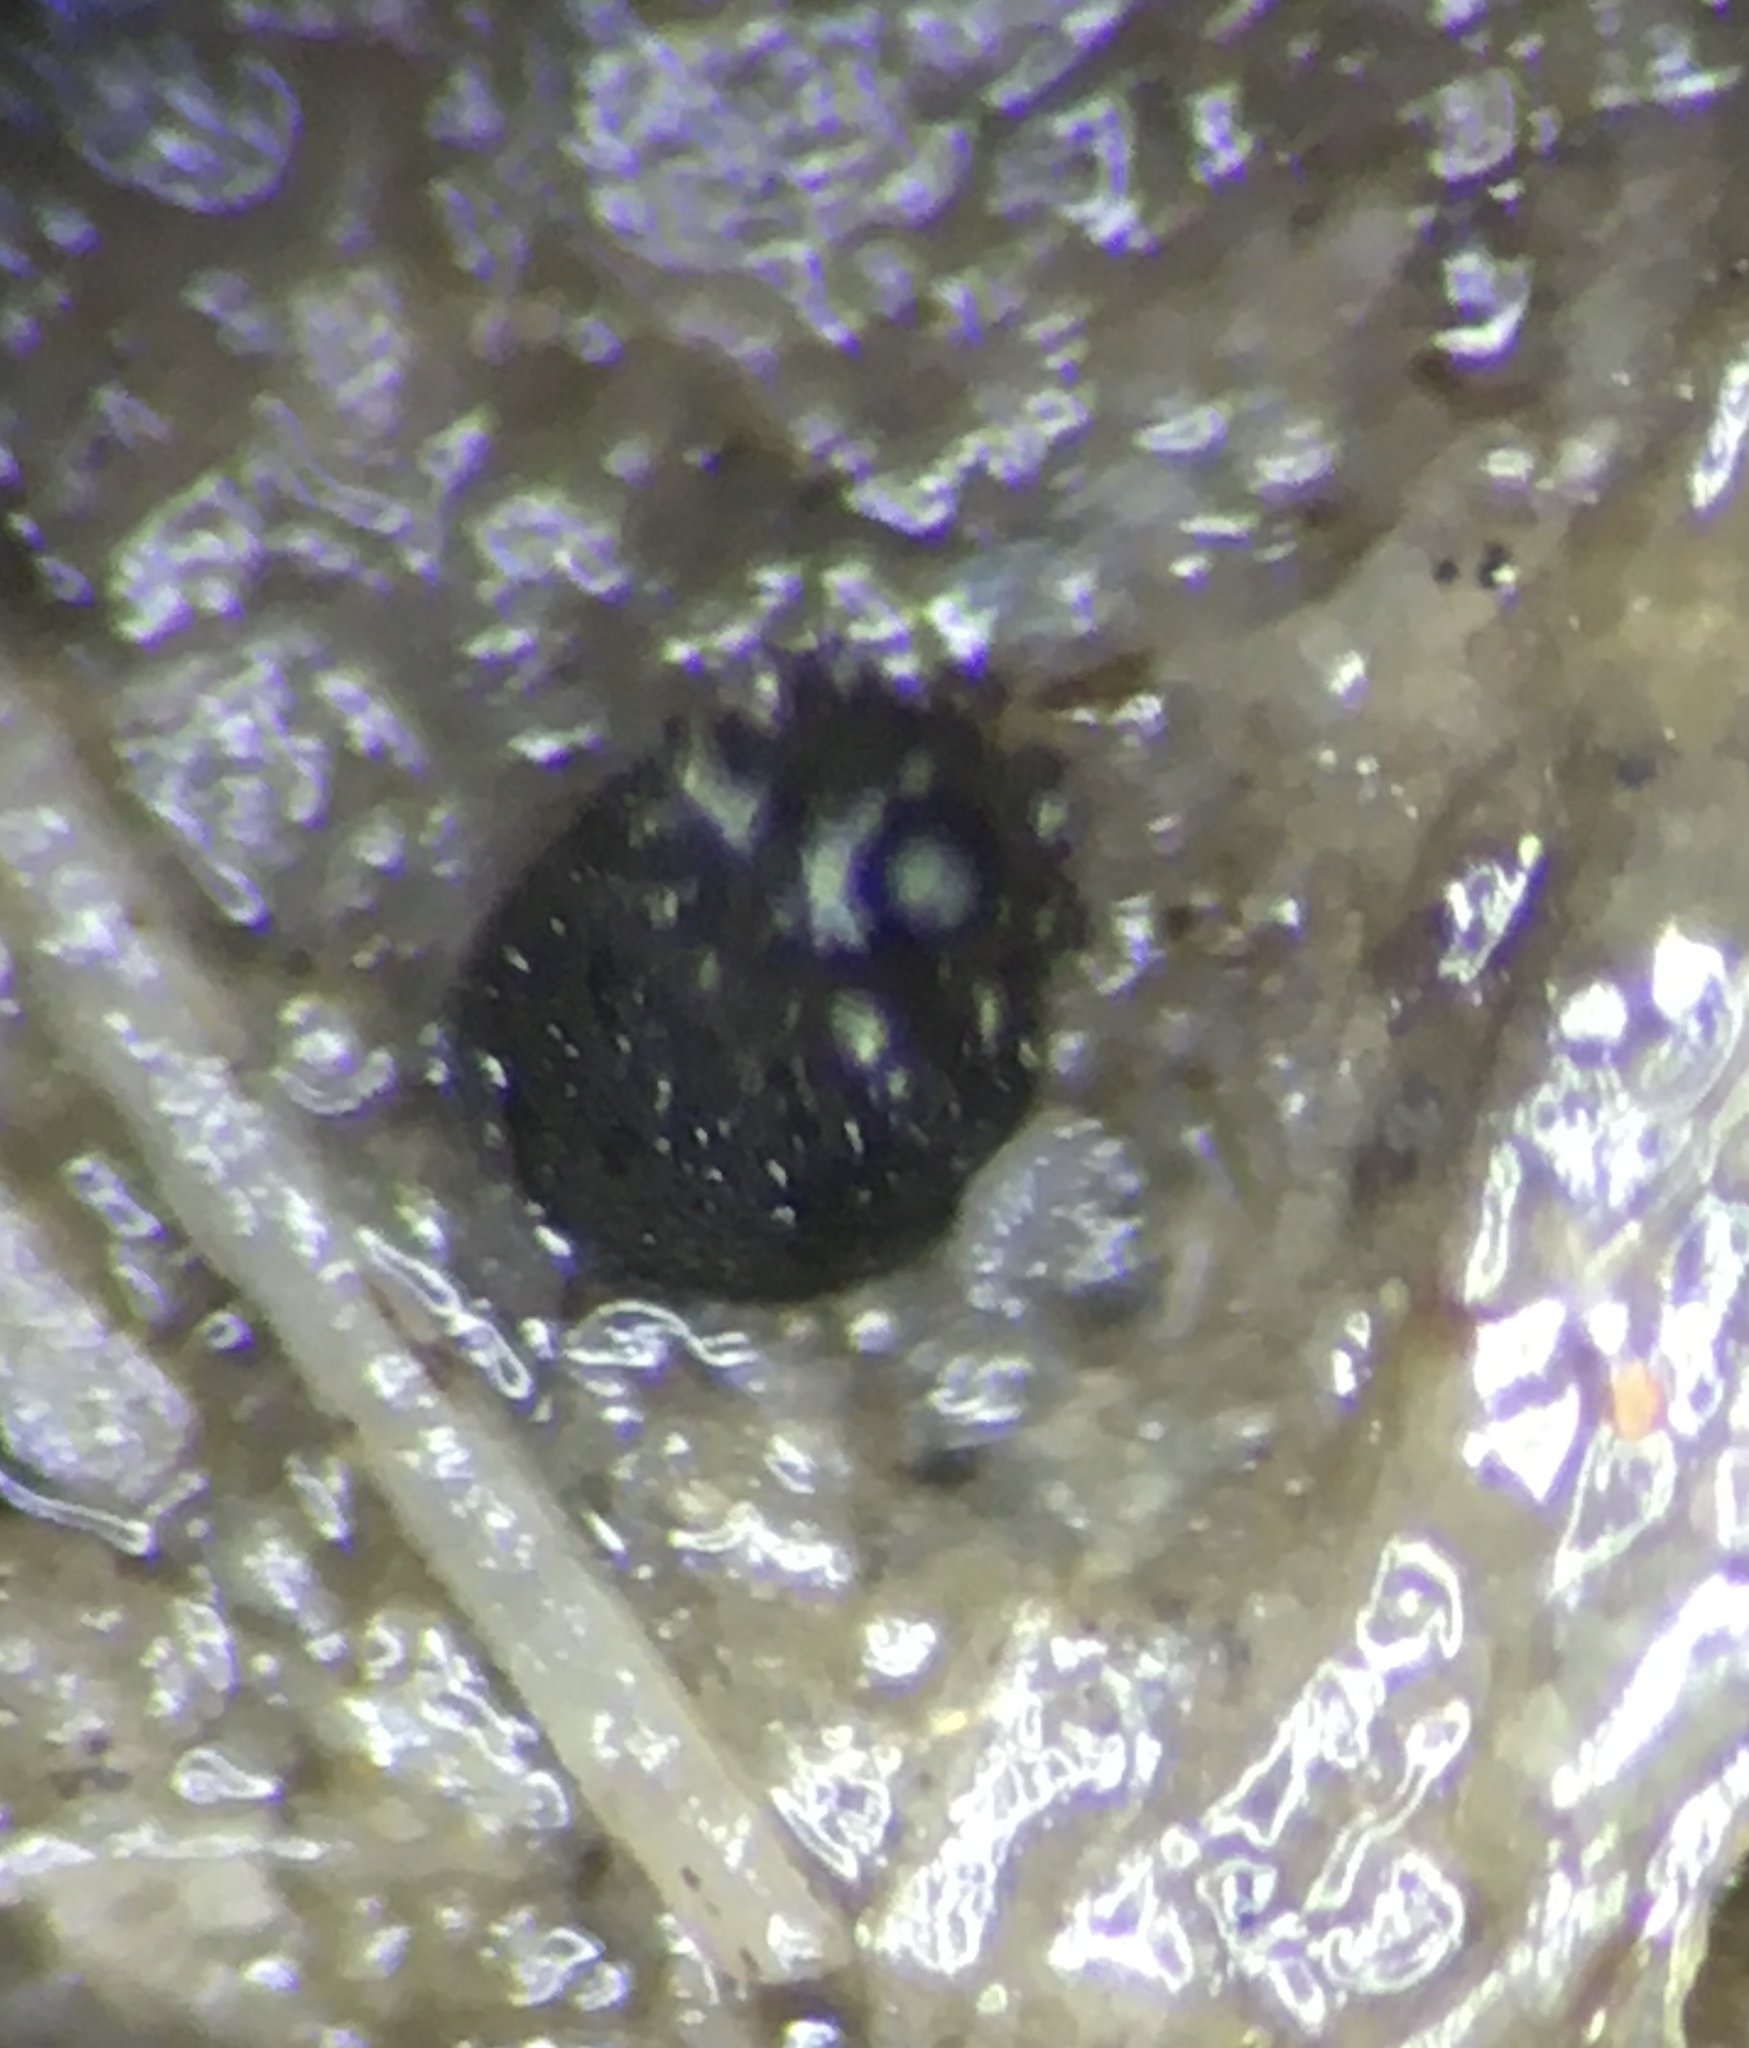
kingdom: Fungi
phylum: Ascomycota
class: Leotiomycetes
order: Helotiales
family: Hyaloscyphaceae
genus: Unguiculella
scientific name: Unguiculella tityri
